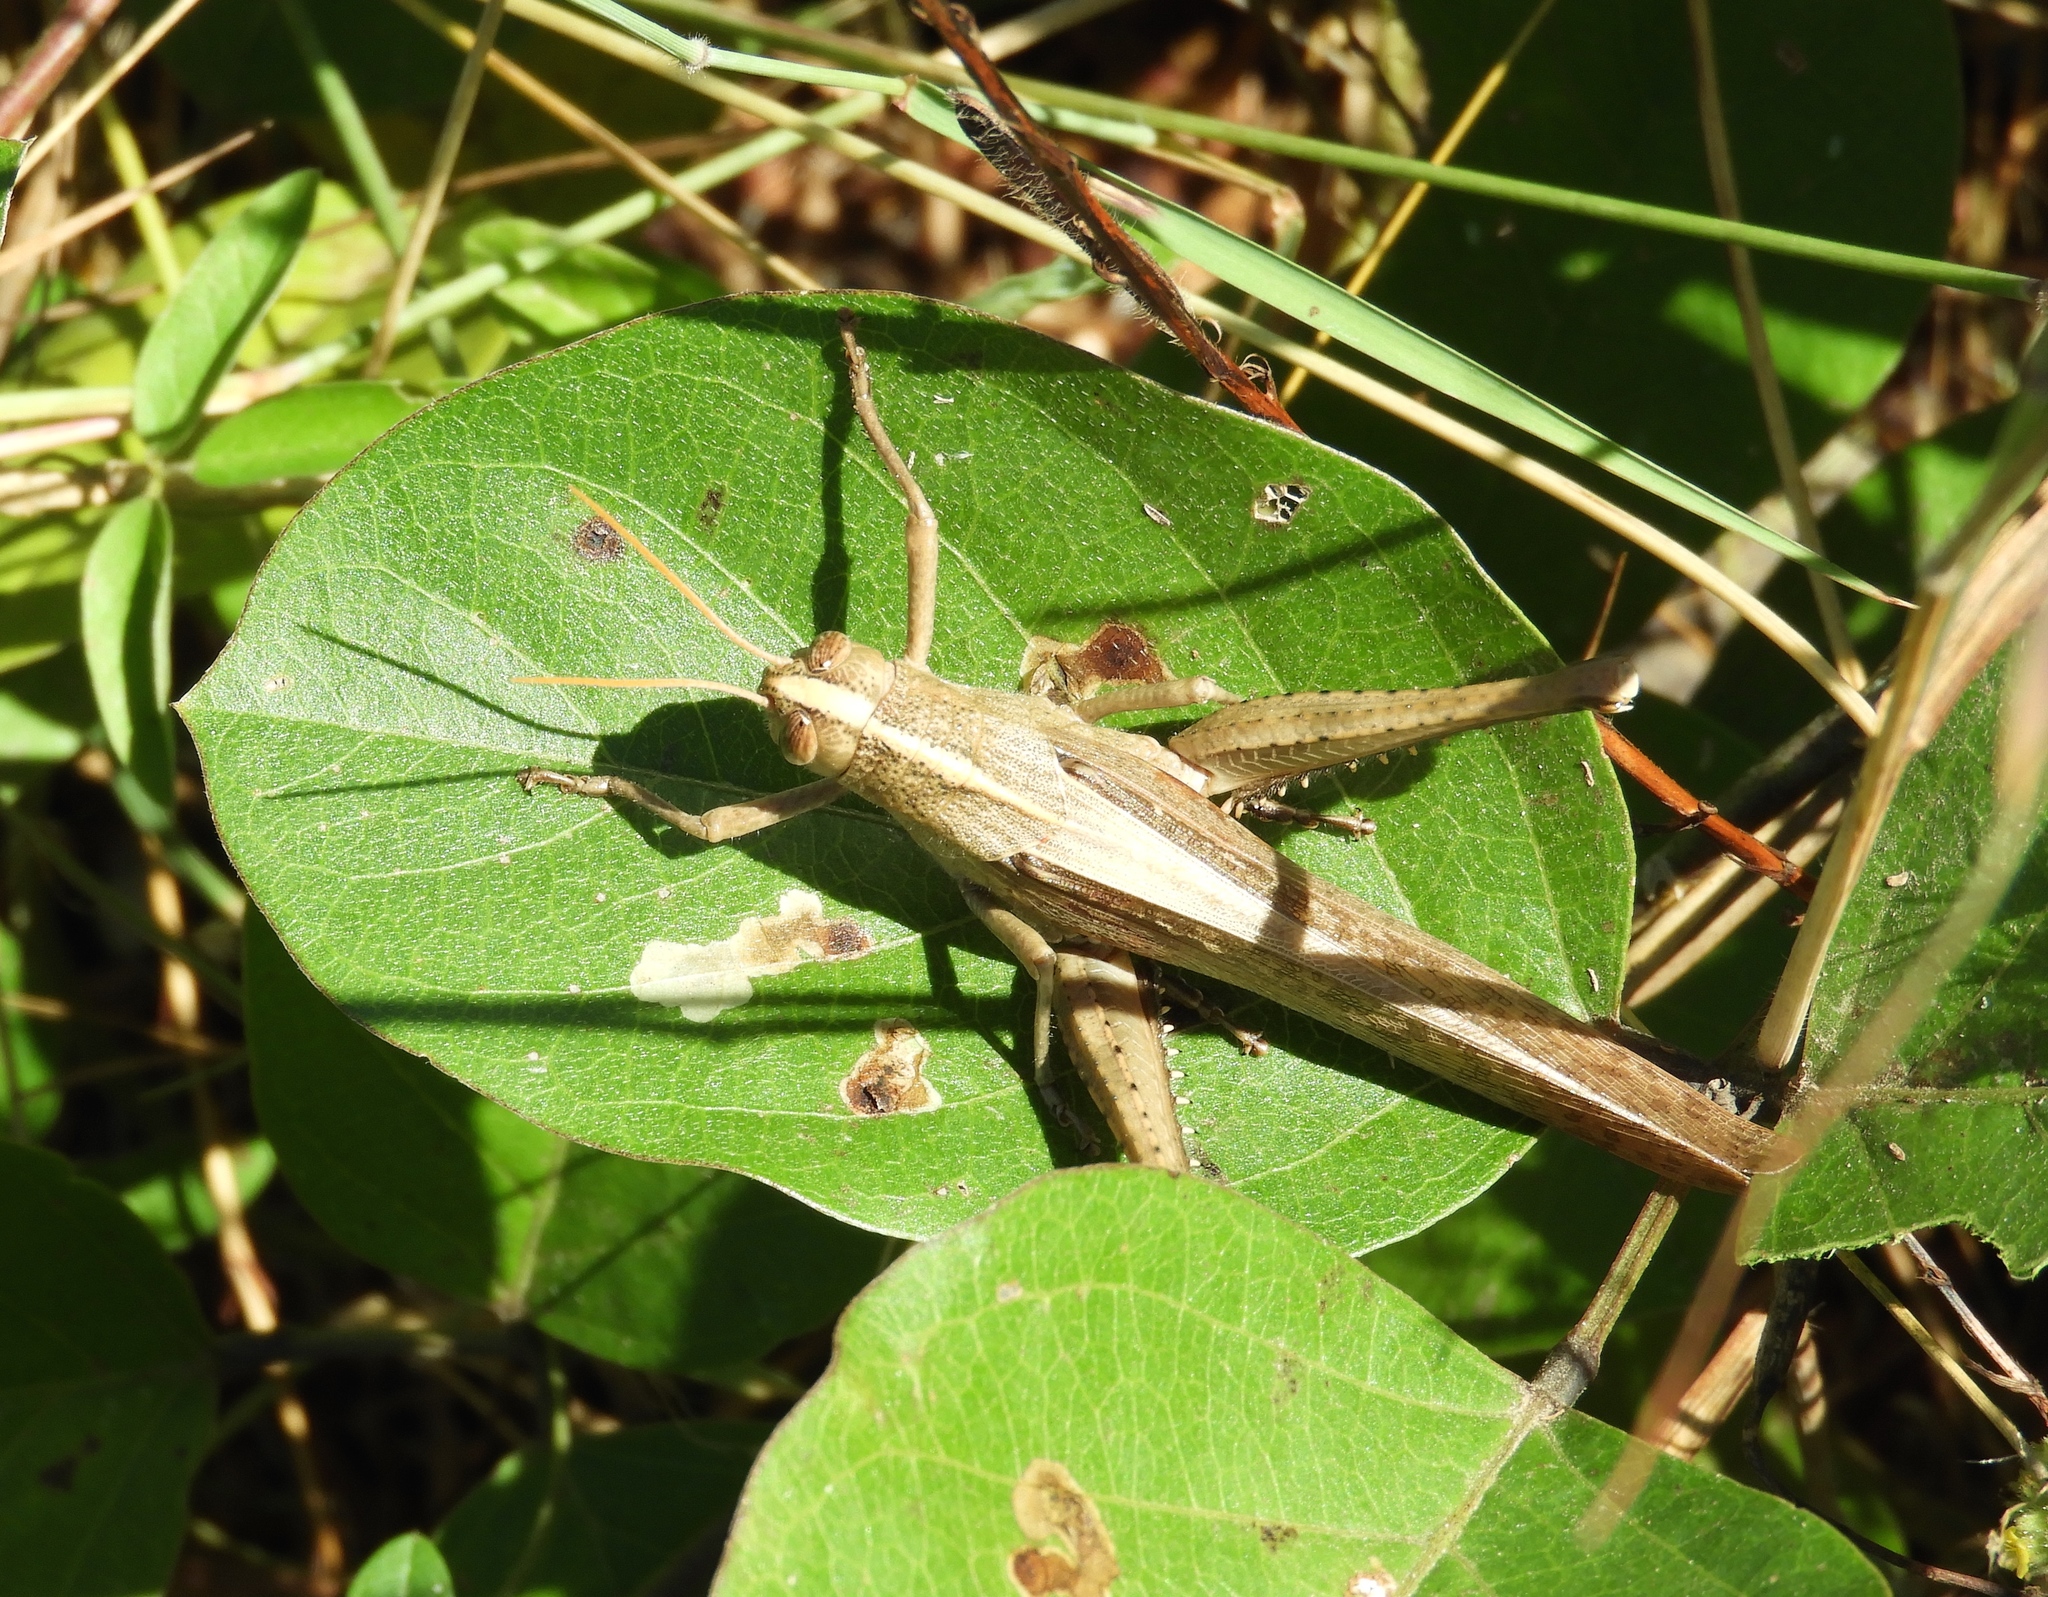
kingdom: Animalia
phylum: Arthropoda
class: Insecta
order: Orthoptera
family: Acrididae
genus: Schistocerca
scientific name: Schistocerca
